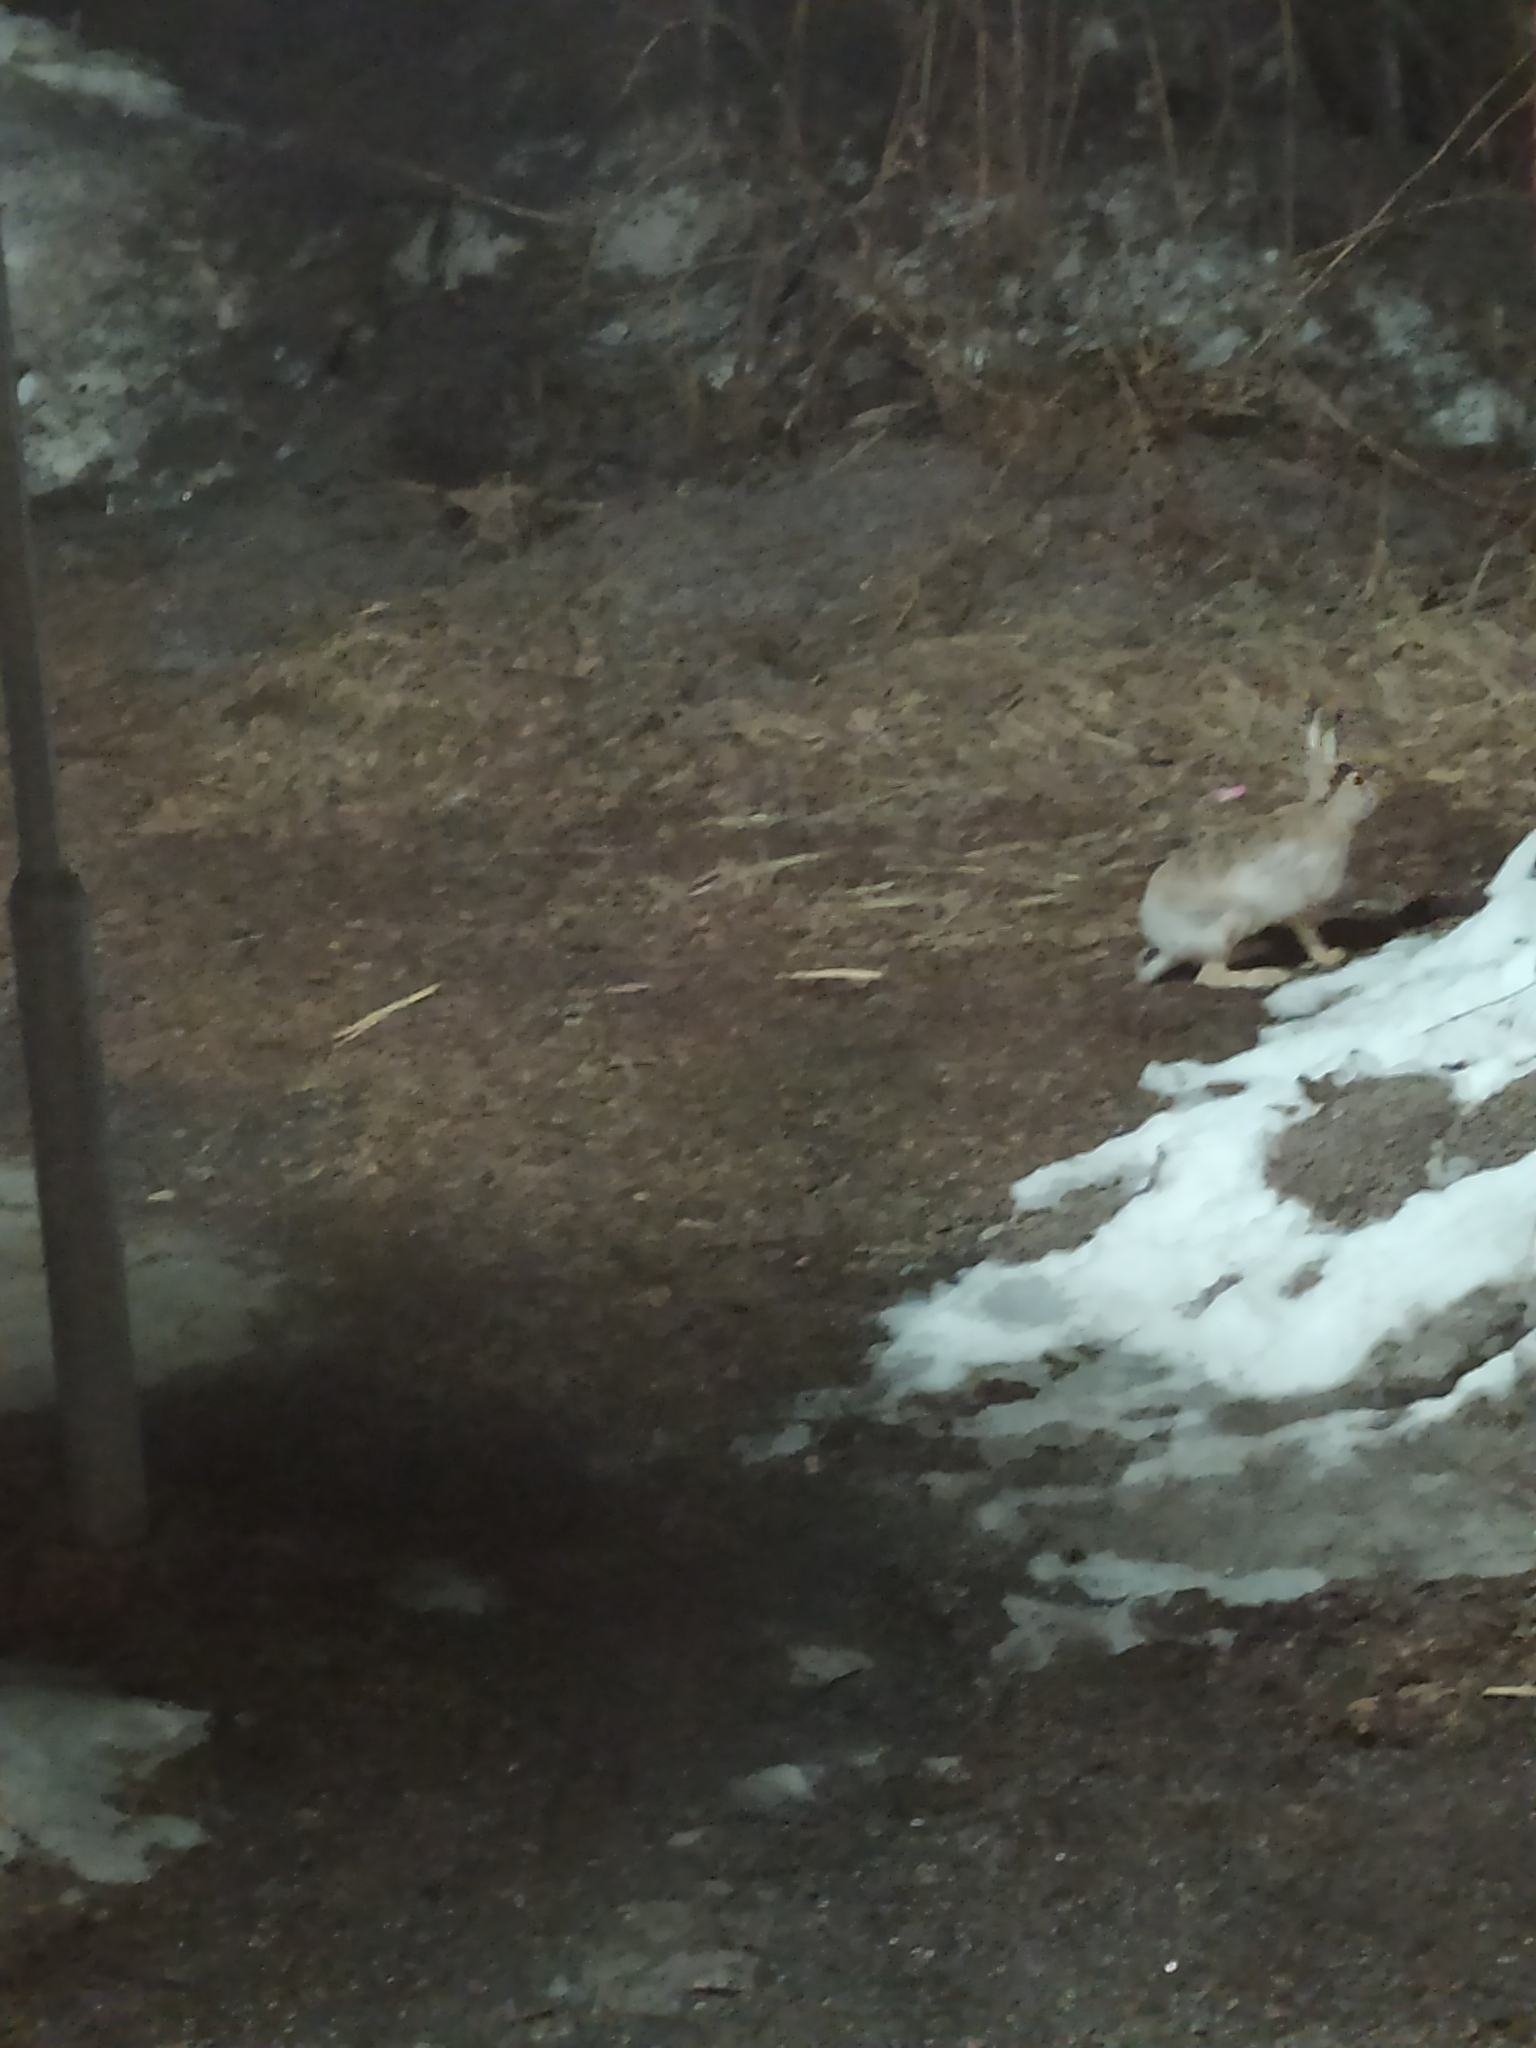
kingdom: Animalia
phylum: Chordata
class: Mammalia
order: Lagomorpha
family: Leporidae
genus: Lepus
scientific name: Lepus europaeus
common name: European hare
